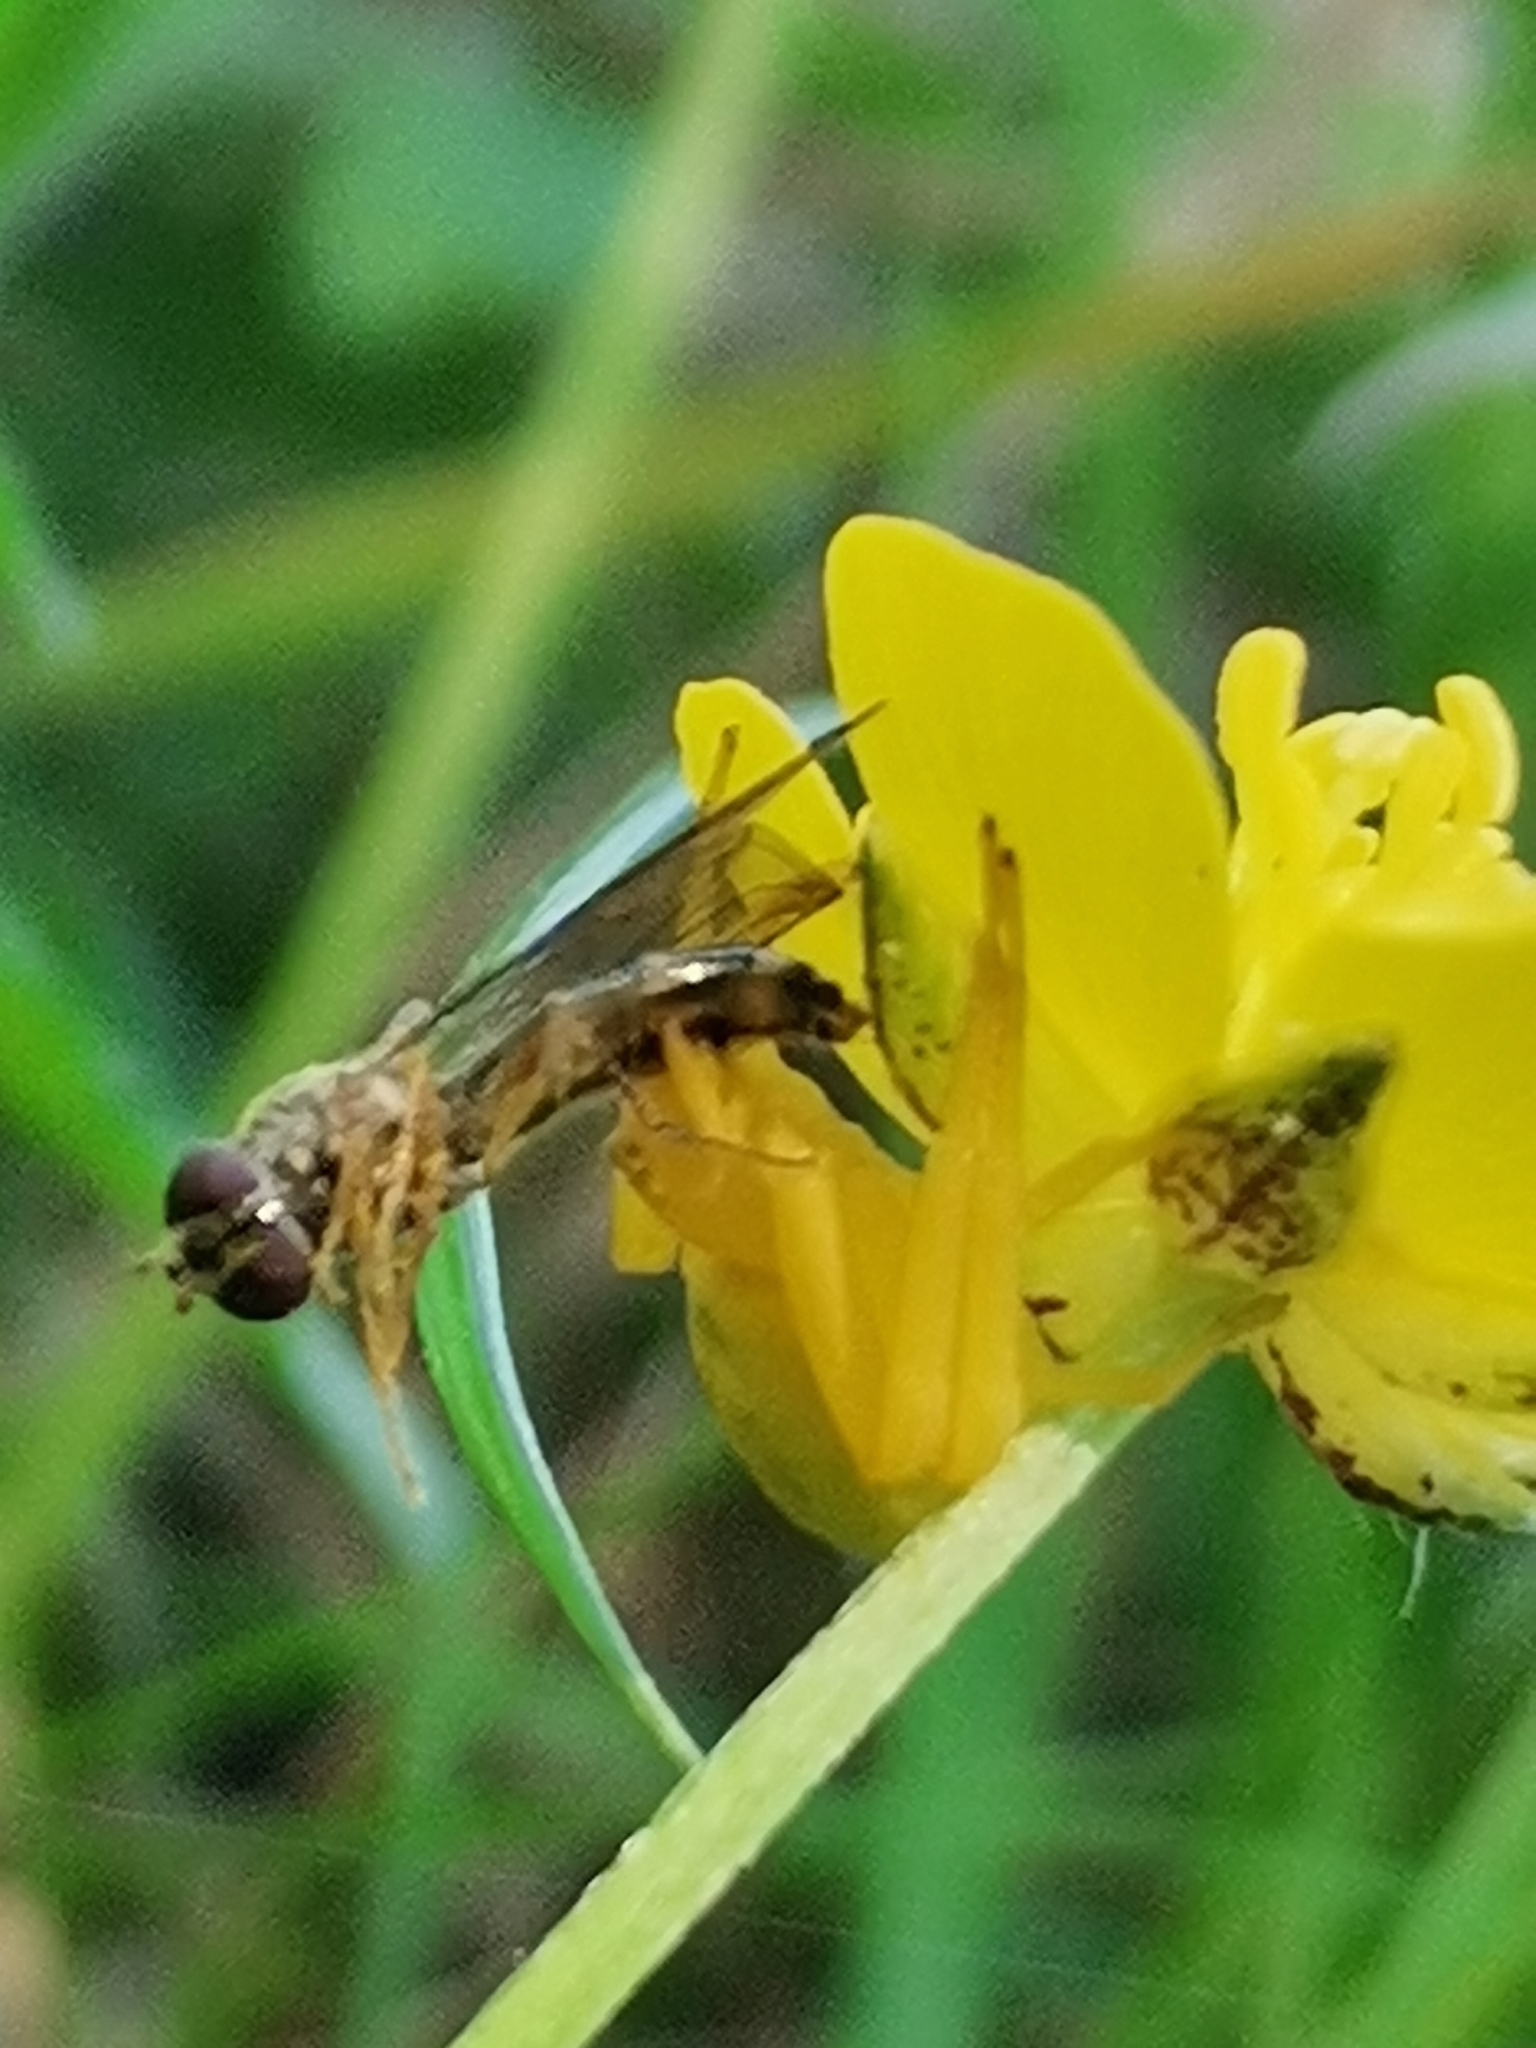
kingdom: Animalia
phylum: Arthropoda
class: Arachnida
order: Araneae
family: Thomisidae
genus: Misumena
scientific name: Misumena vatia
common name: Goldenrod crab spider
